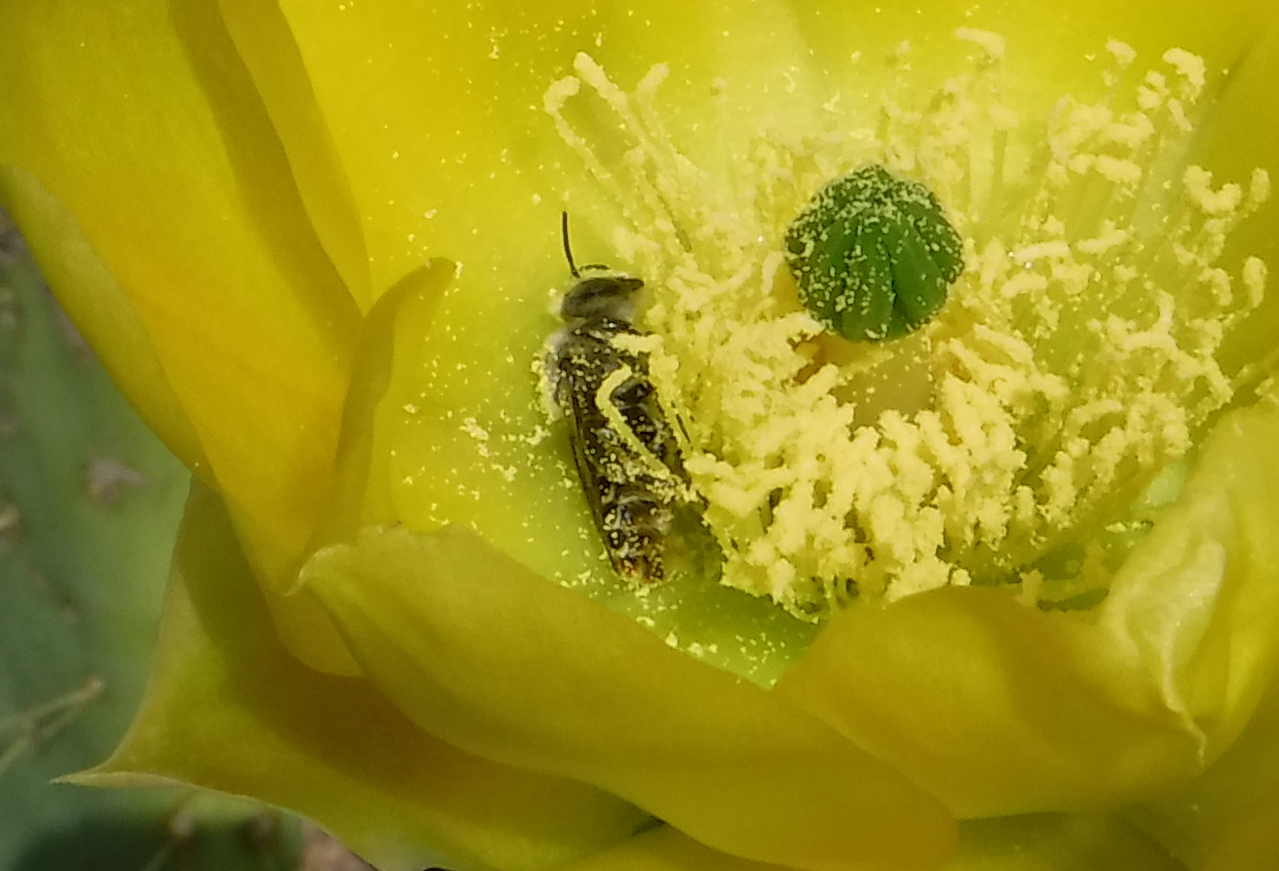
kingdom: Animalia
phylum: Arthropoda
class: Insecta
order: Hymenoptera
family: Megachilidae
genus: Lithurgopsis
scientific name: Lithurgopsis apicalis
